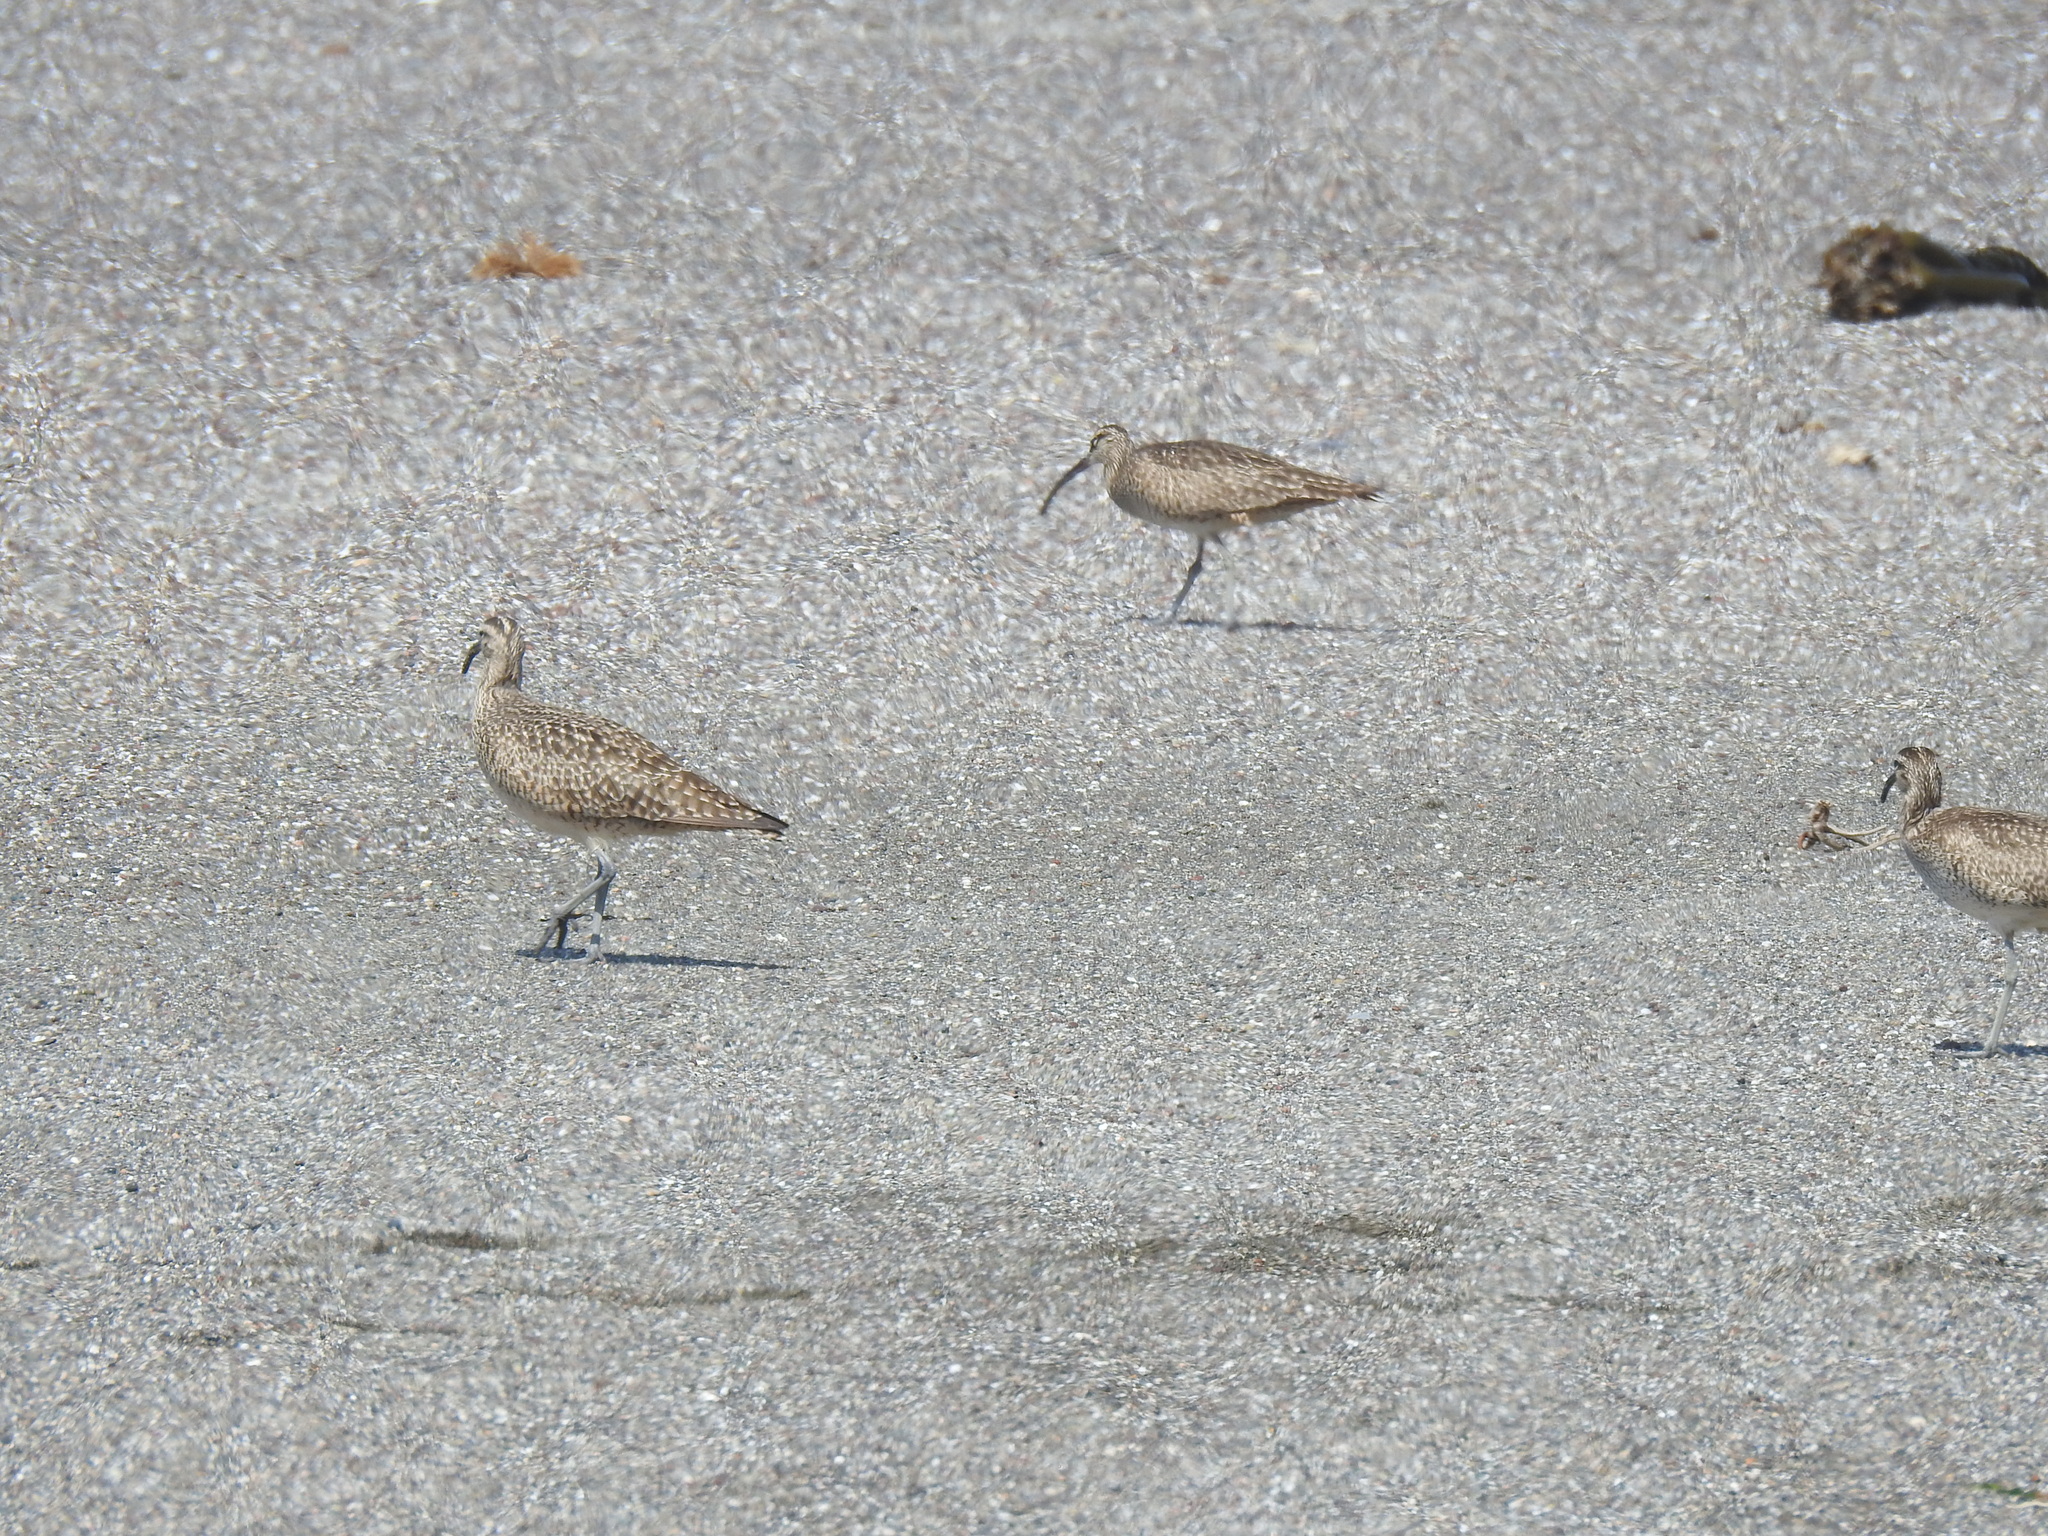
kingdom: Animalia
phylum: Chordata
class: Aves
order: Charadriiformes
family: Scolopacidae
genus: Numenius
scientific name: Numenius phaeopus
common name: Whimbrel
